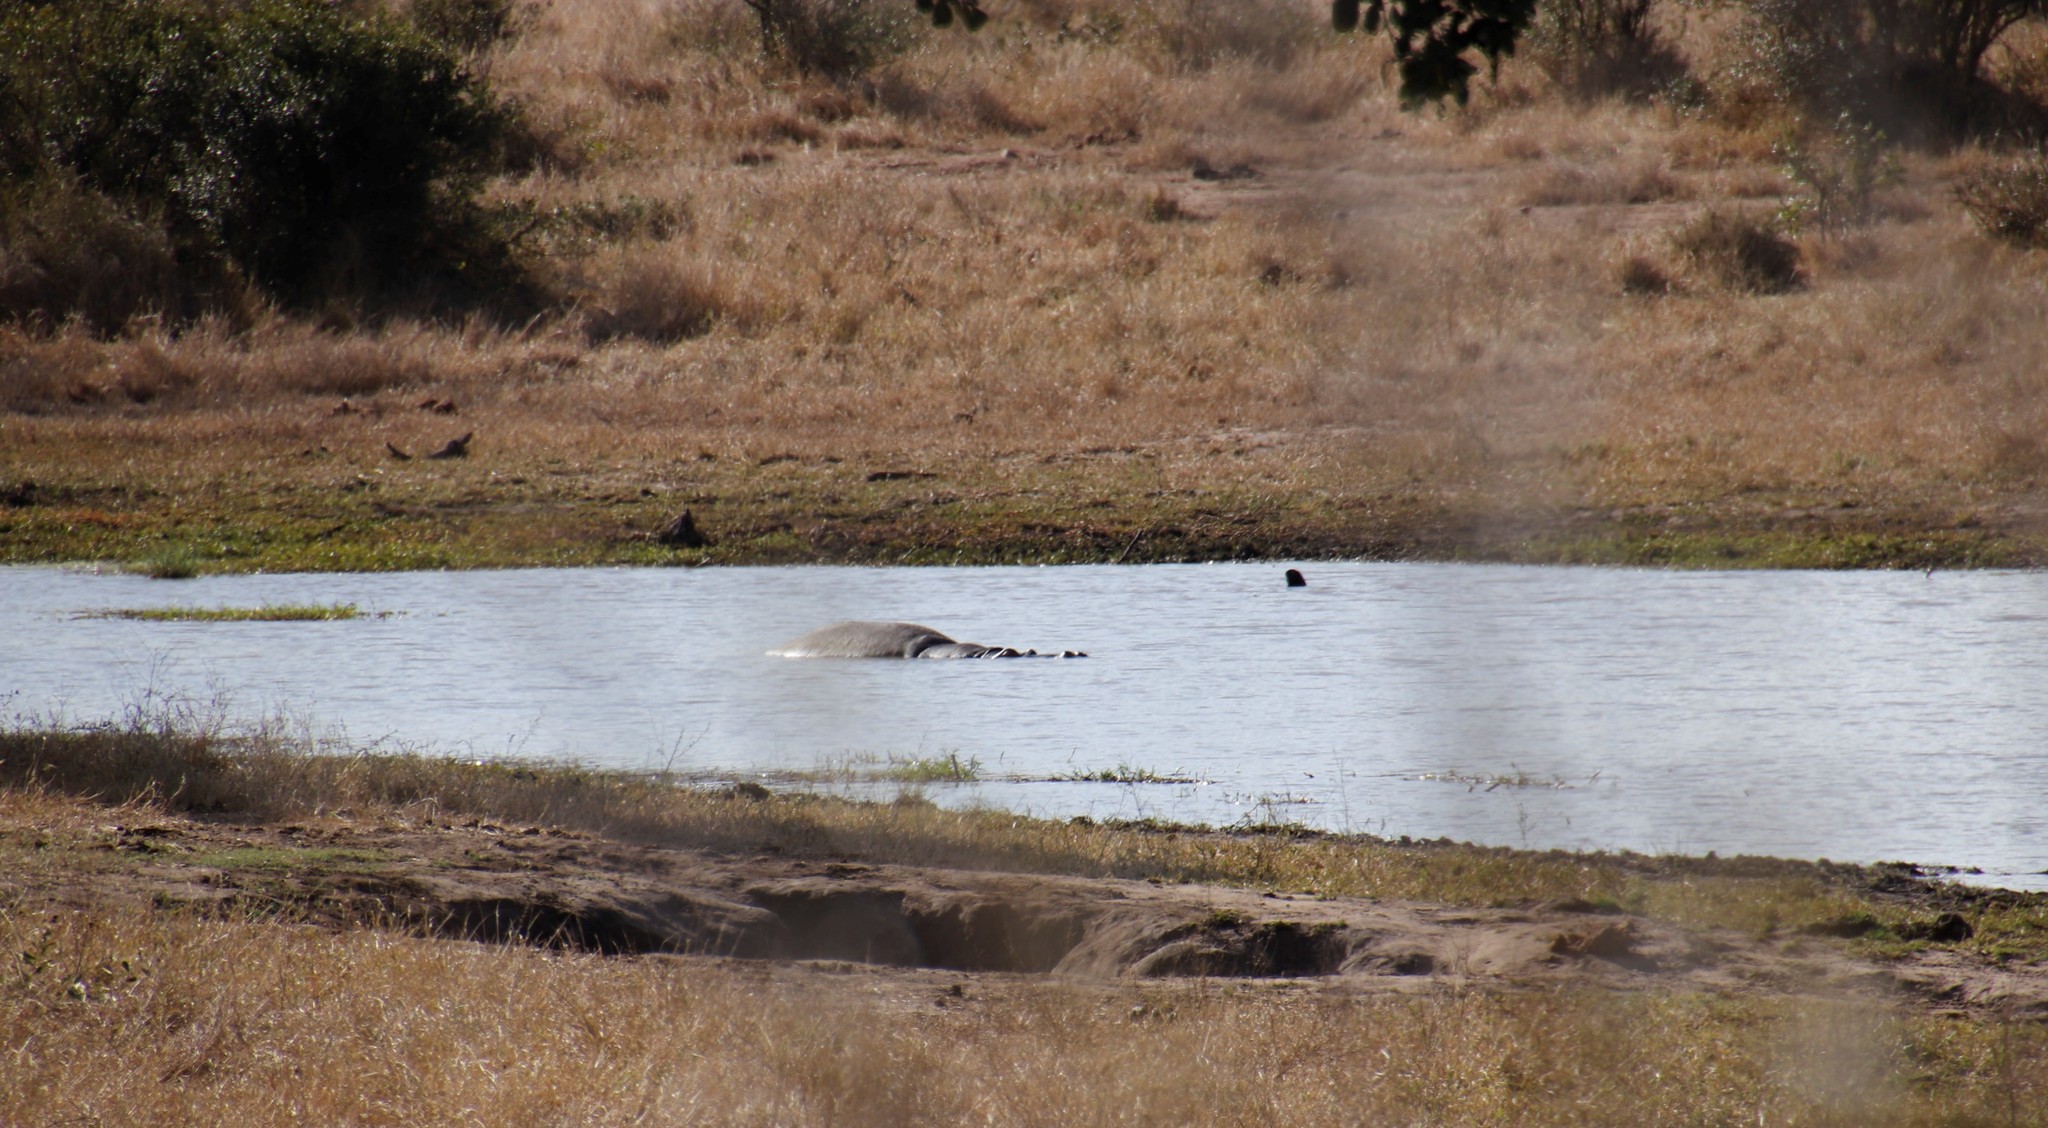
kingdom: Animalia
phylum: Chordata
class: Mammalia
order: Artiodactyla
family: Hippopotamidae
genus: Hippopotamus
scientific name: Hippopotamus amphibius
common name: Common hippopotamus
